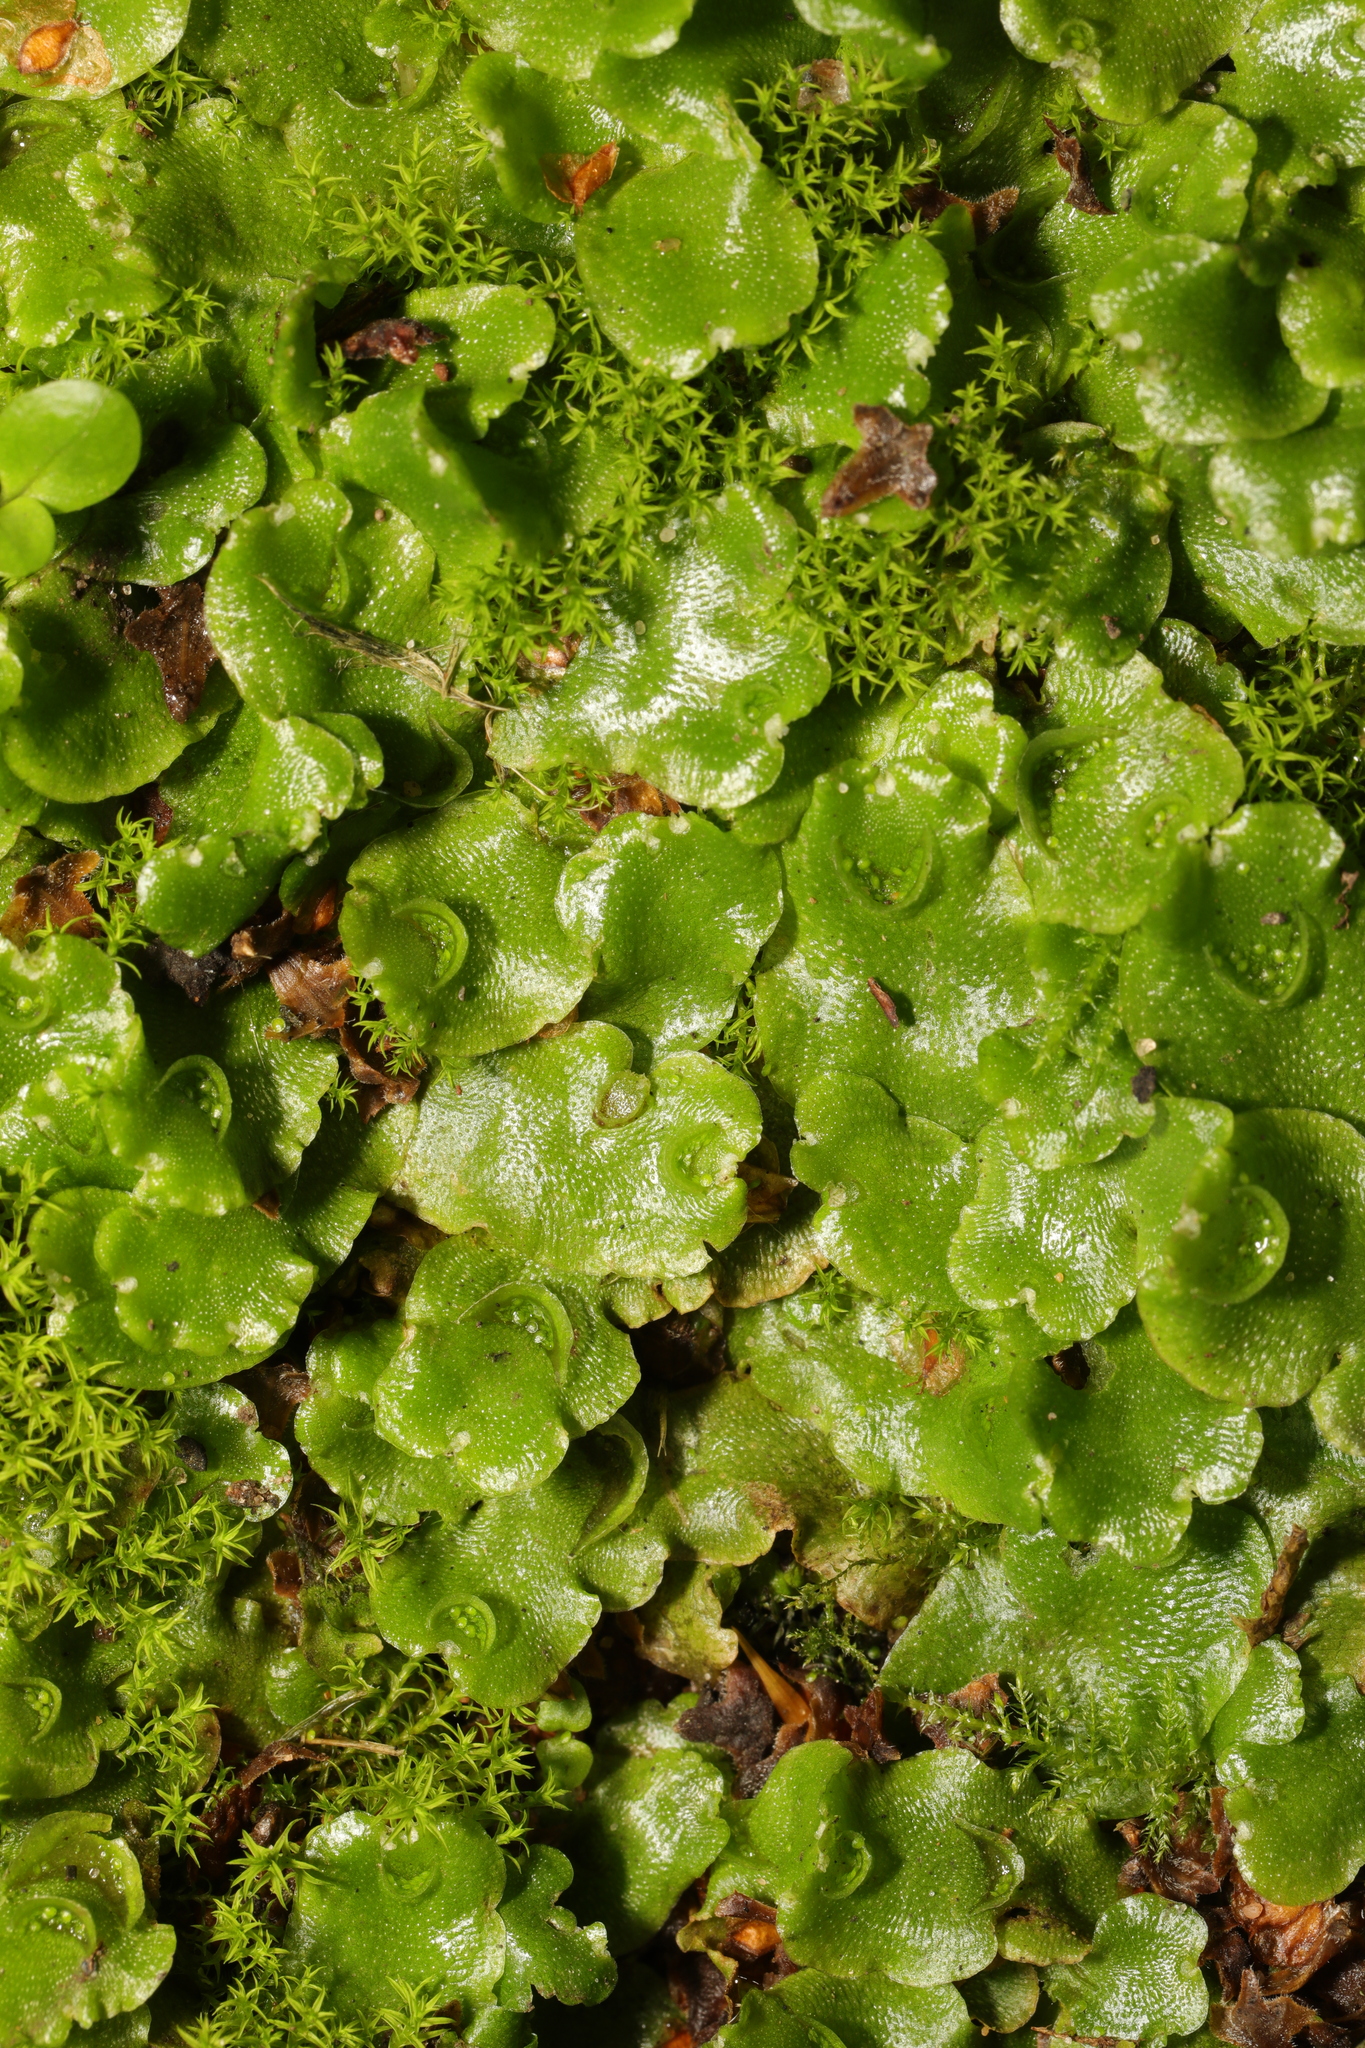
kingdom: Plantae
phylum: Marchantiophyta
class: Marchantiopsida
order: Lunulariales
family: Lunulariaceae
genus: Lunularia
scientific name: Lunularia cruciata
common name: Crescent-cup liverwort
